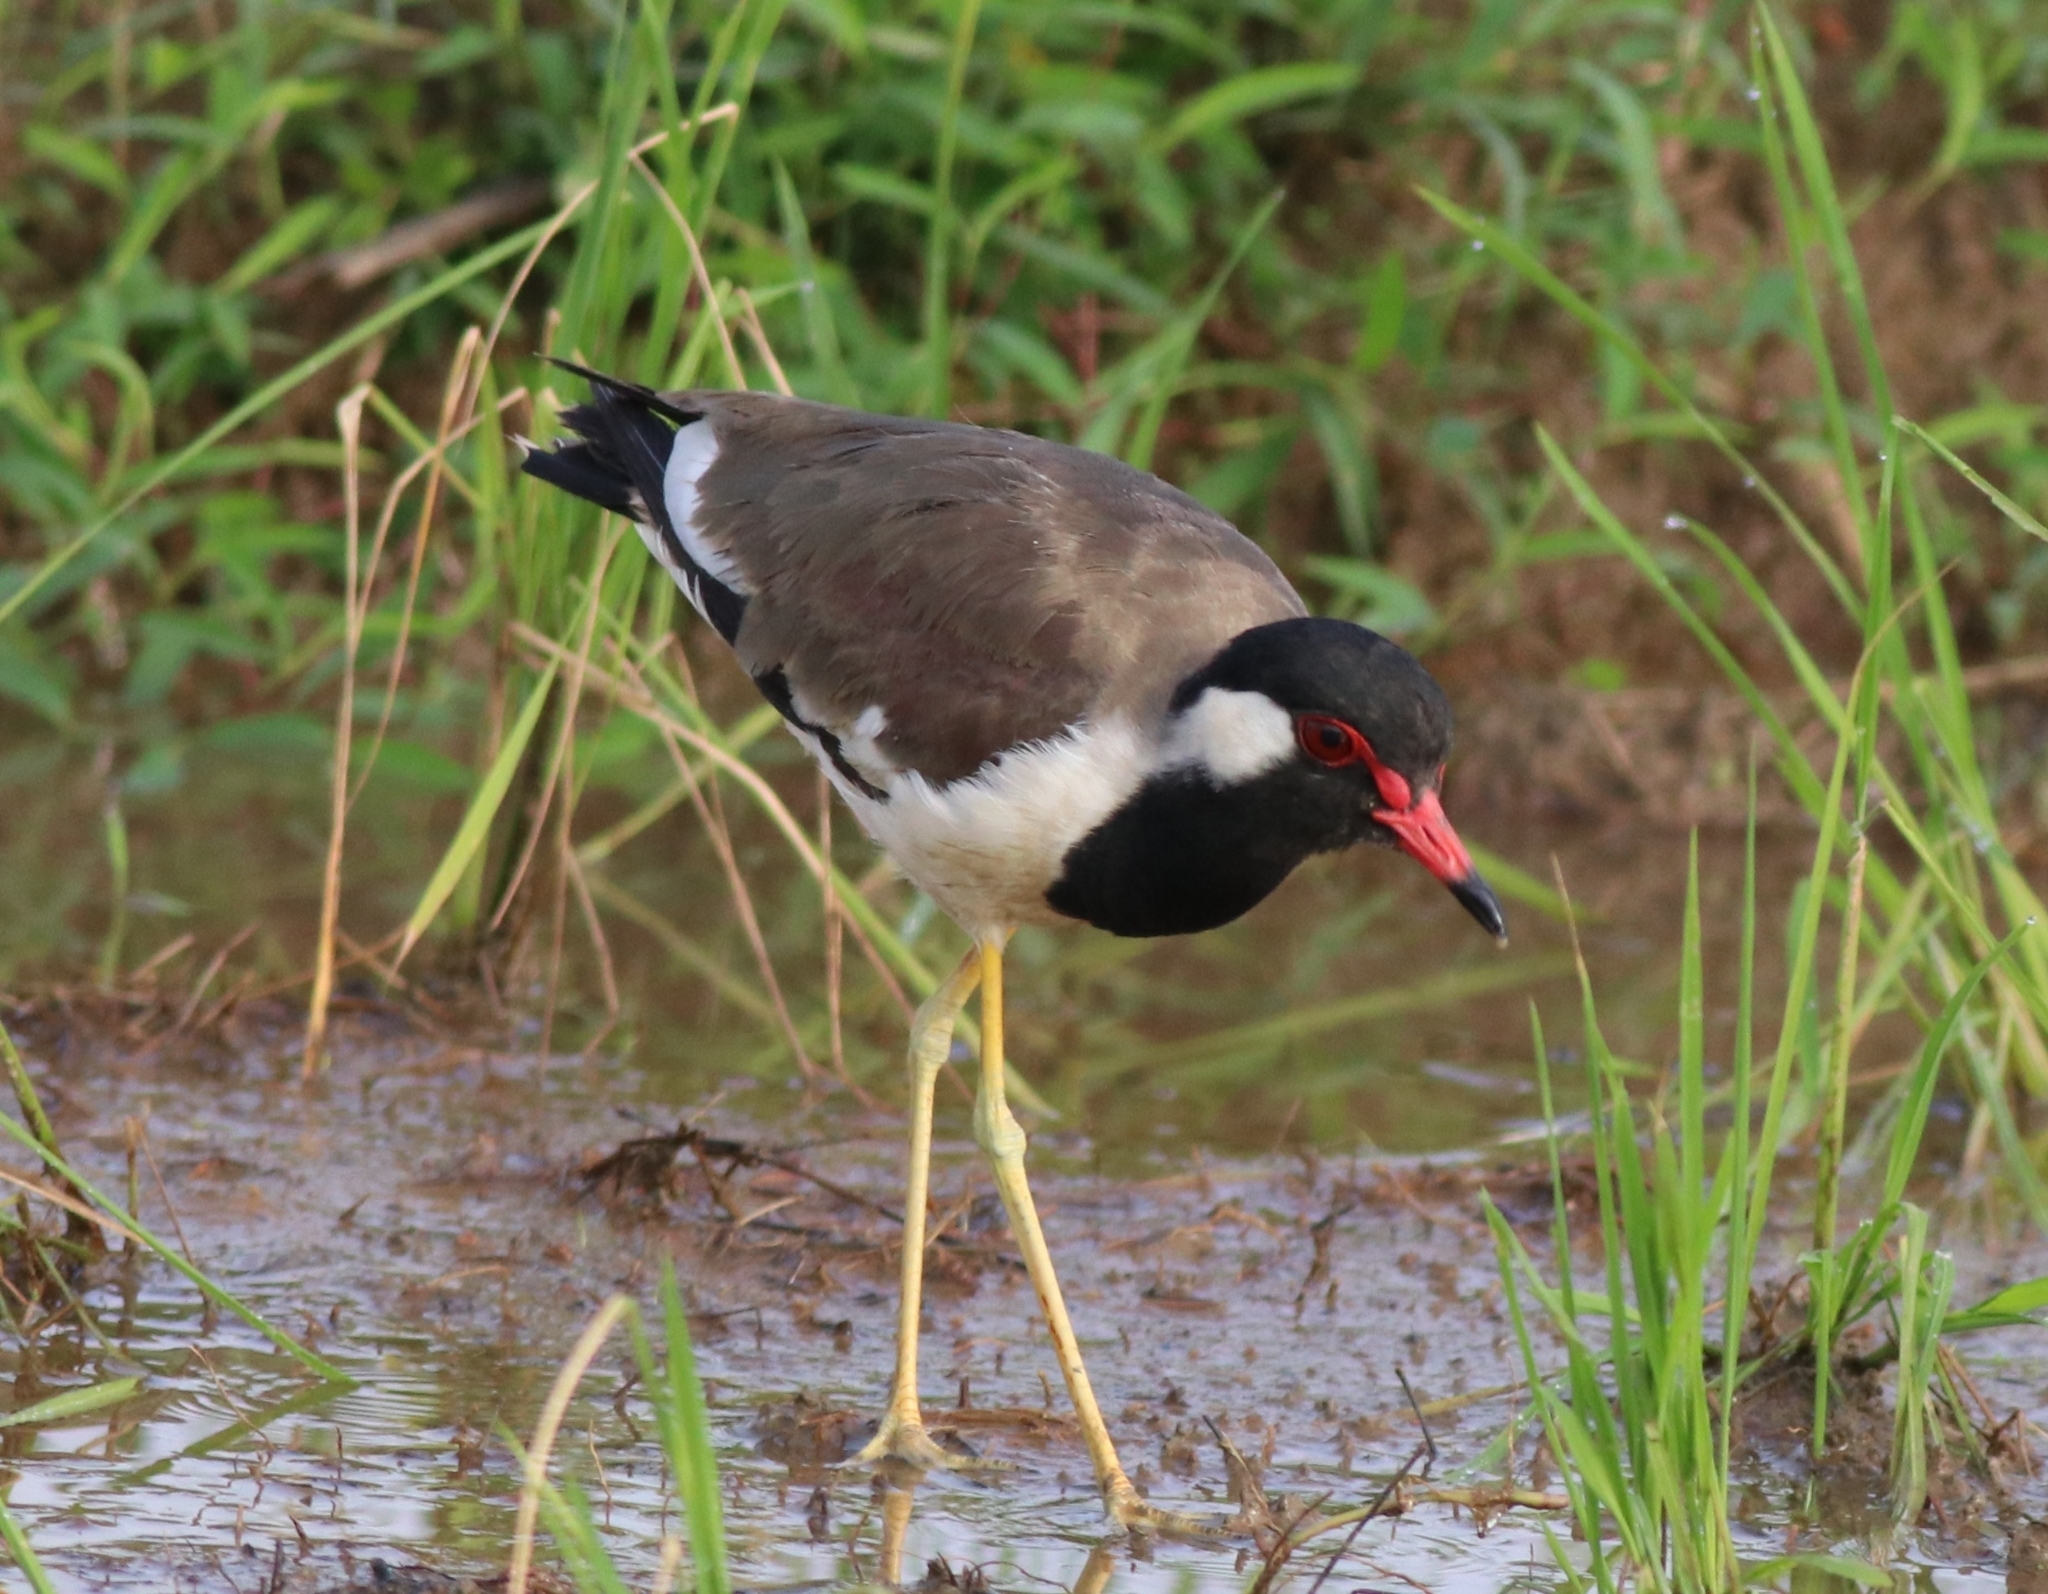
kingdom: Animalia
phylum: Chordata
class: Aves
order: Charadriiformes
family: Charadriidae
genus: Vanellus
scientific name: Vanellus indicus
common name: Red-wattled lapwing
